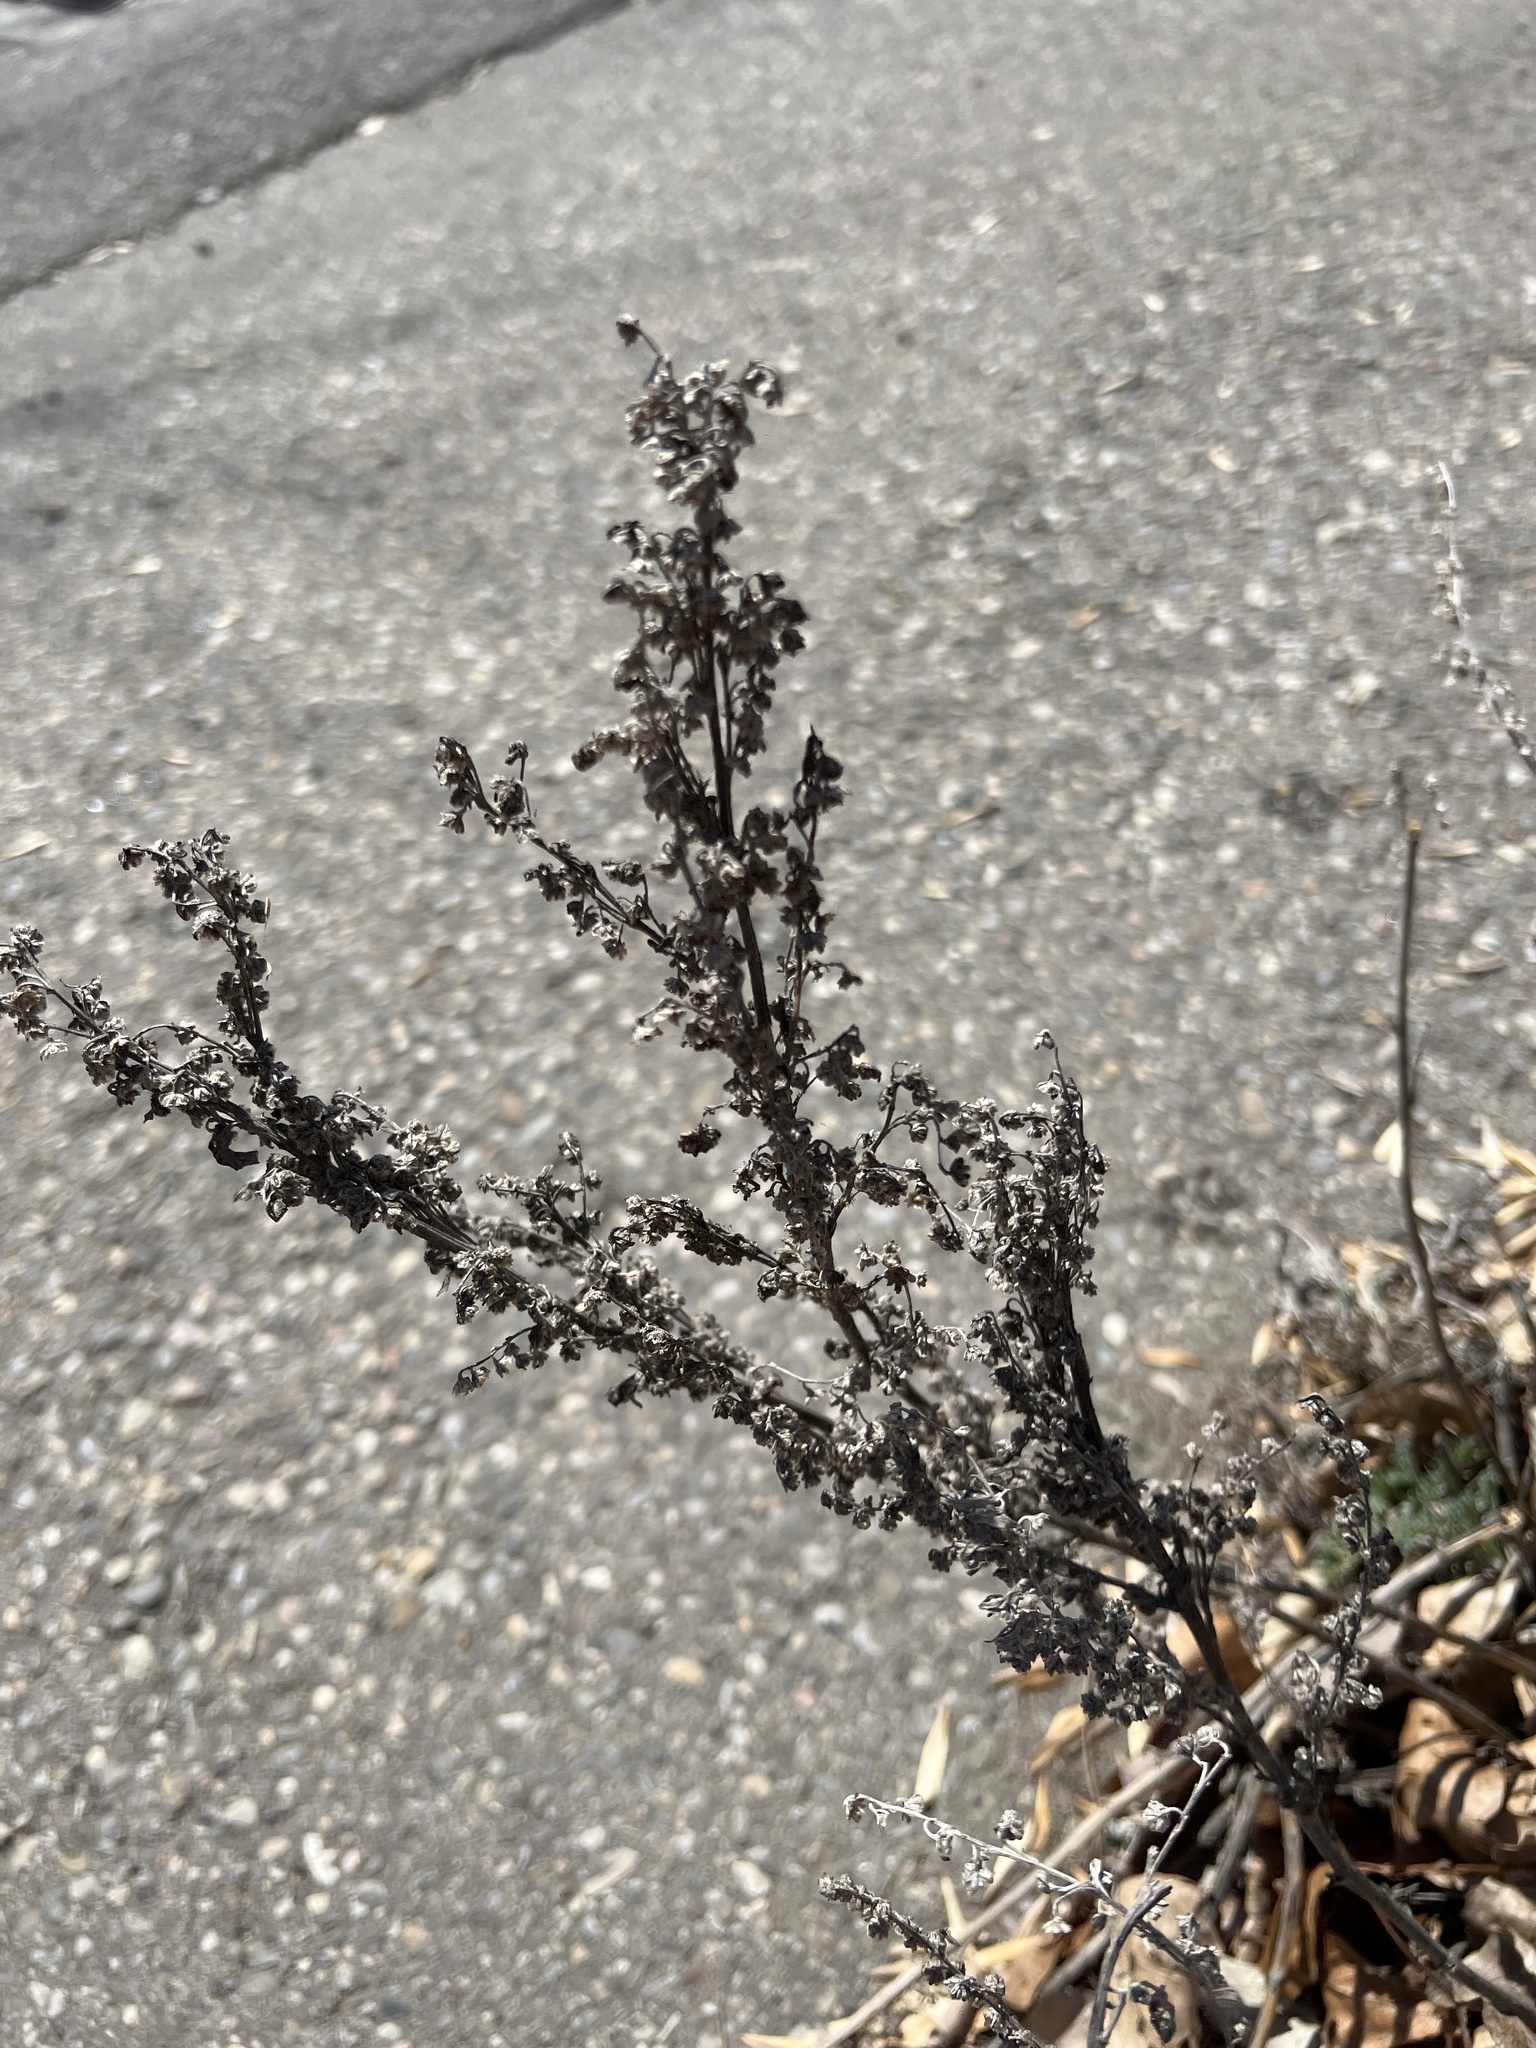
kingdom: Plantae
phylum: Tracheophyta
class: Magnoliopsida
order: Asterales
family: Asteraceae
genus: Artemisia
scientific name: Artemisia absinthium
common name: Wormwood
